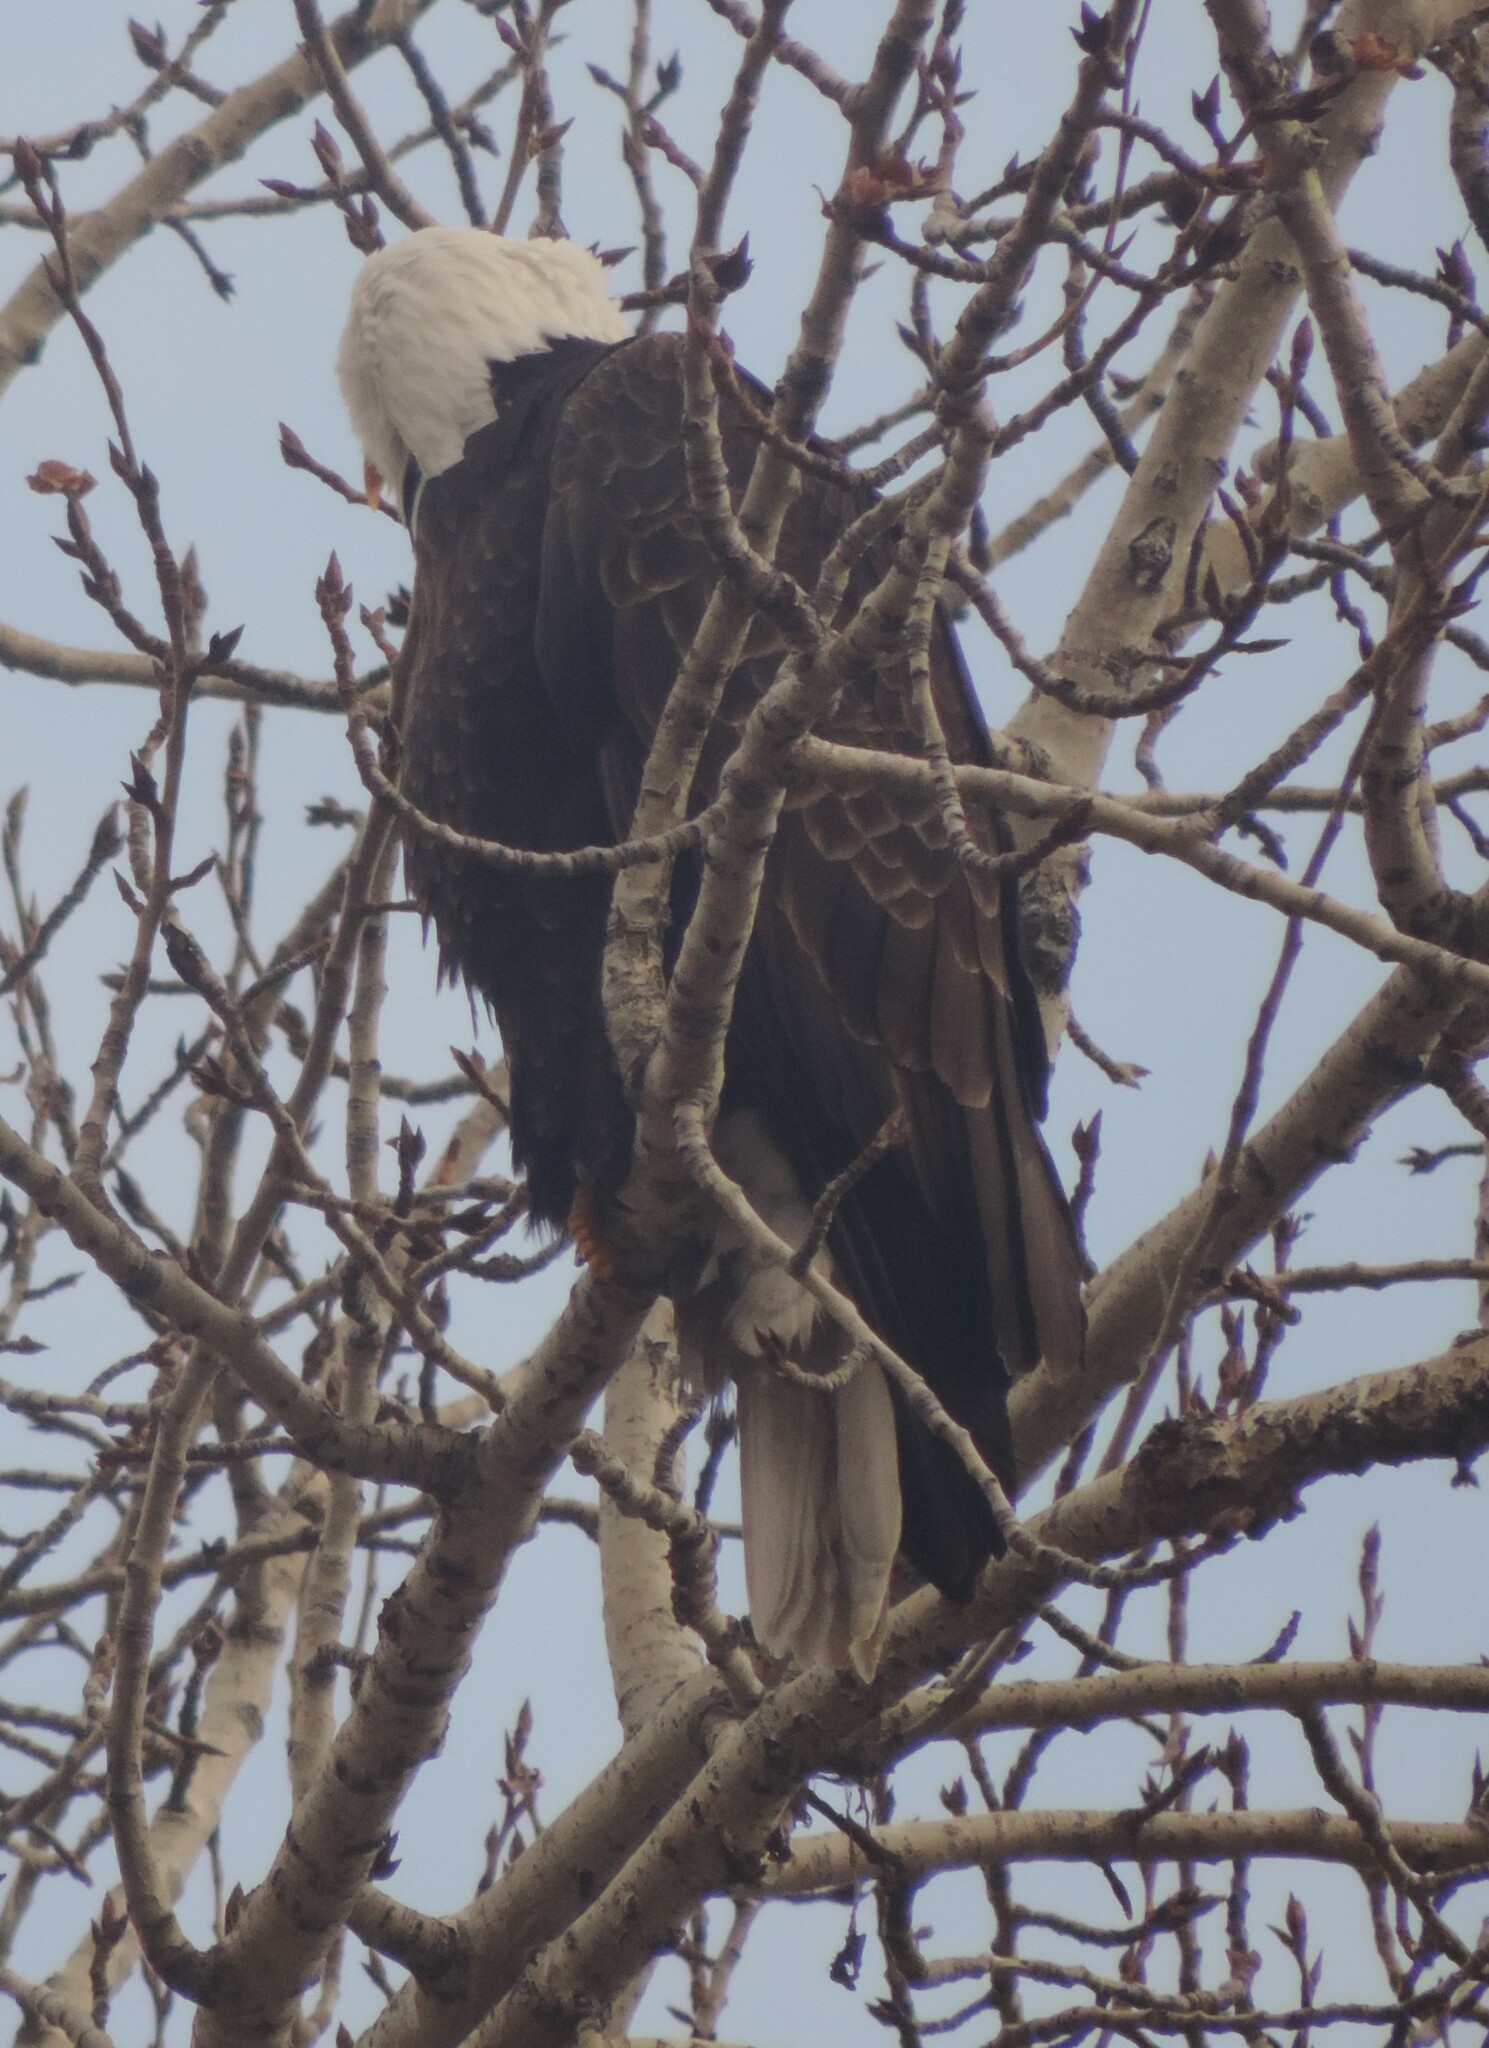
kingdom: Animalia
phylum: Chordata
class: Aves
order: Accipitriformes
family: Accipitridae
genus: Haliaeetus
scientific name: Haliaeetus leucocephalus
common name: Bald eagle
